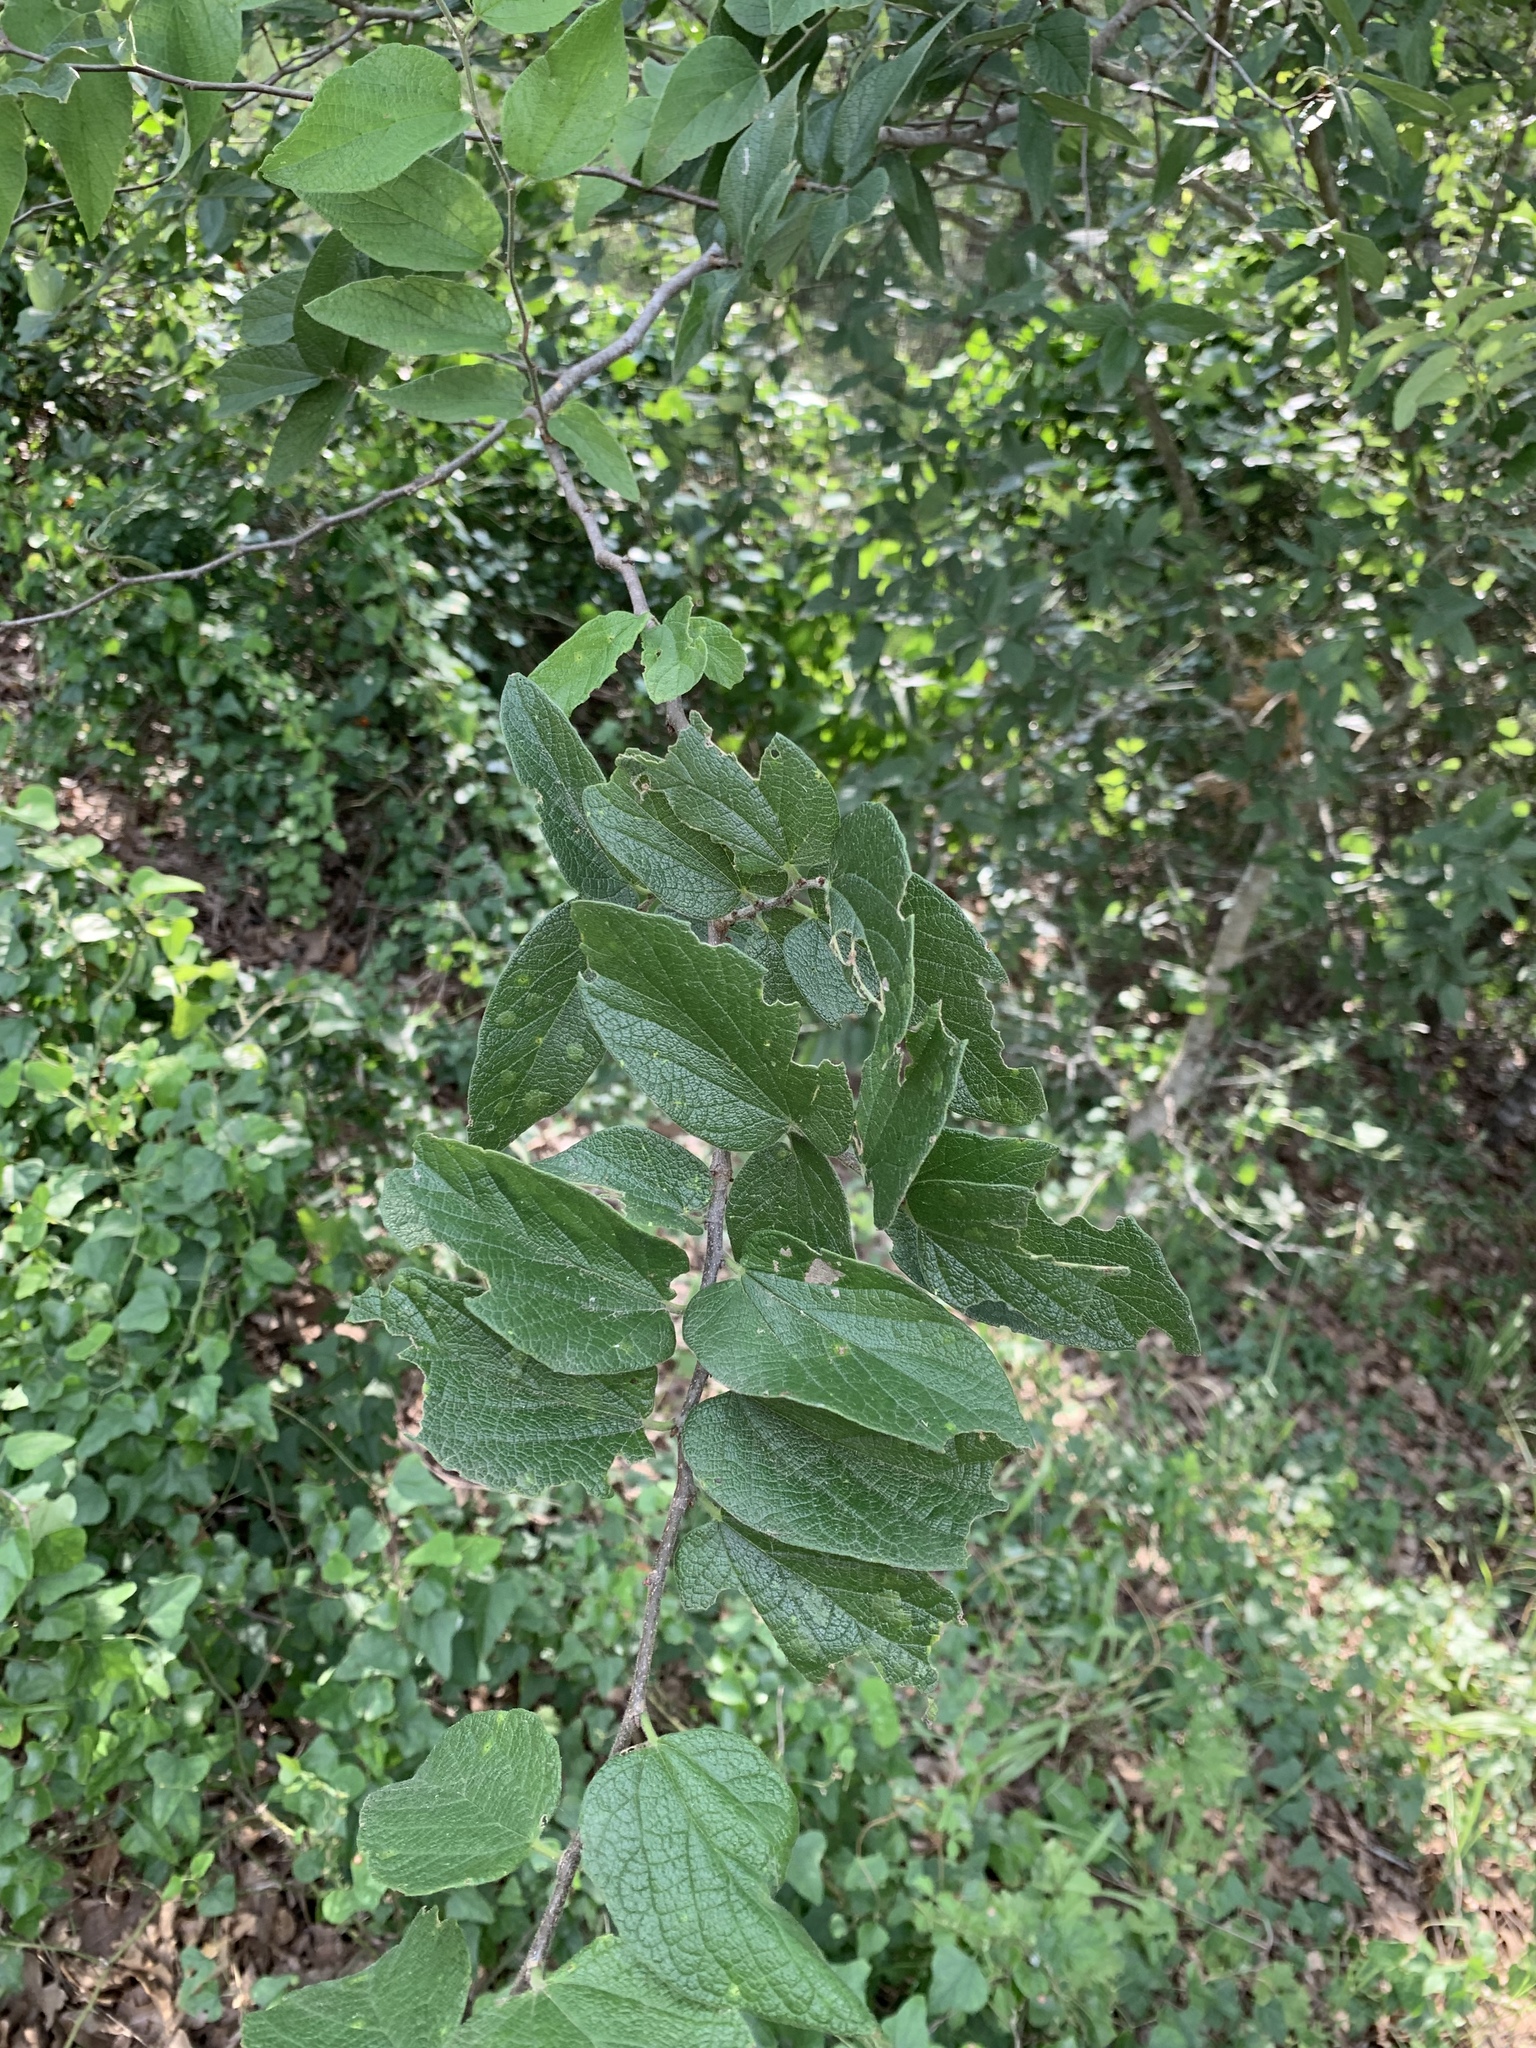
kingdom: Plantae
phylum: Tracheophyta
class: Magnoliopsida
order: Rosales
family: Cannabaceae
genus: Celtis
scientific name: Celtis reticulata
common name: Netleaf hackberry
